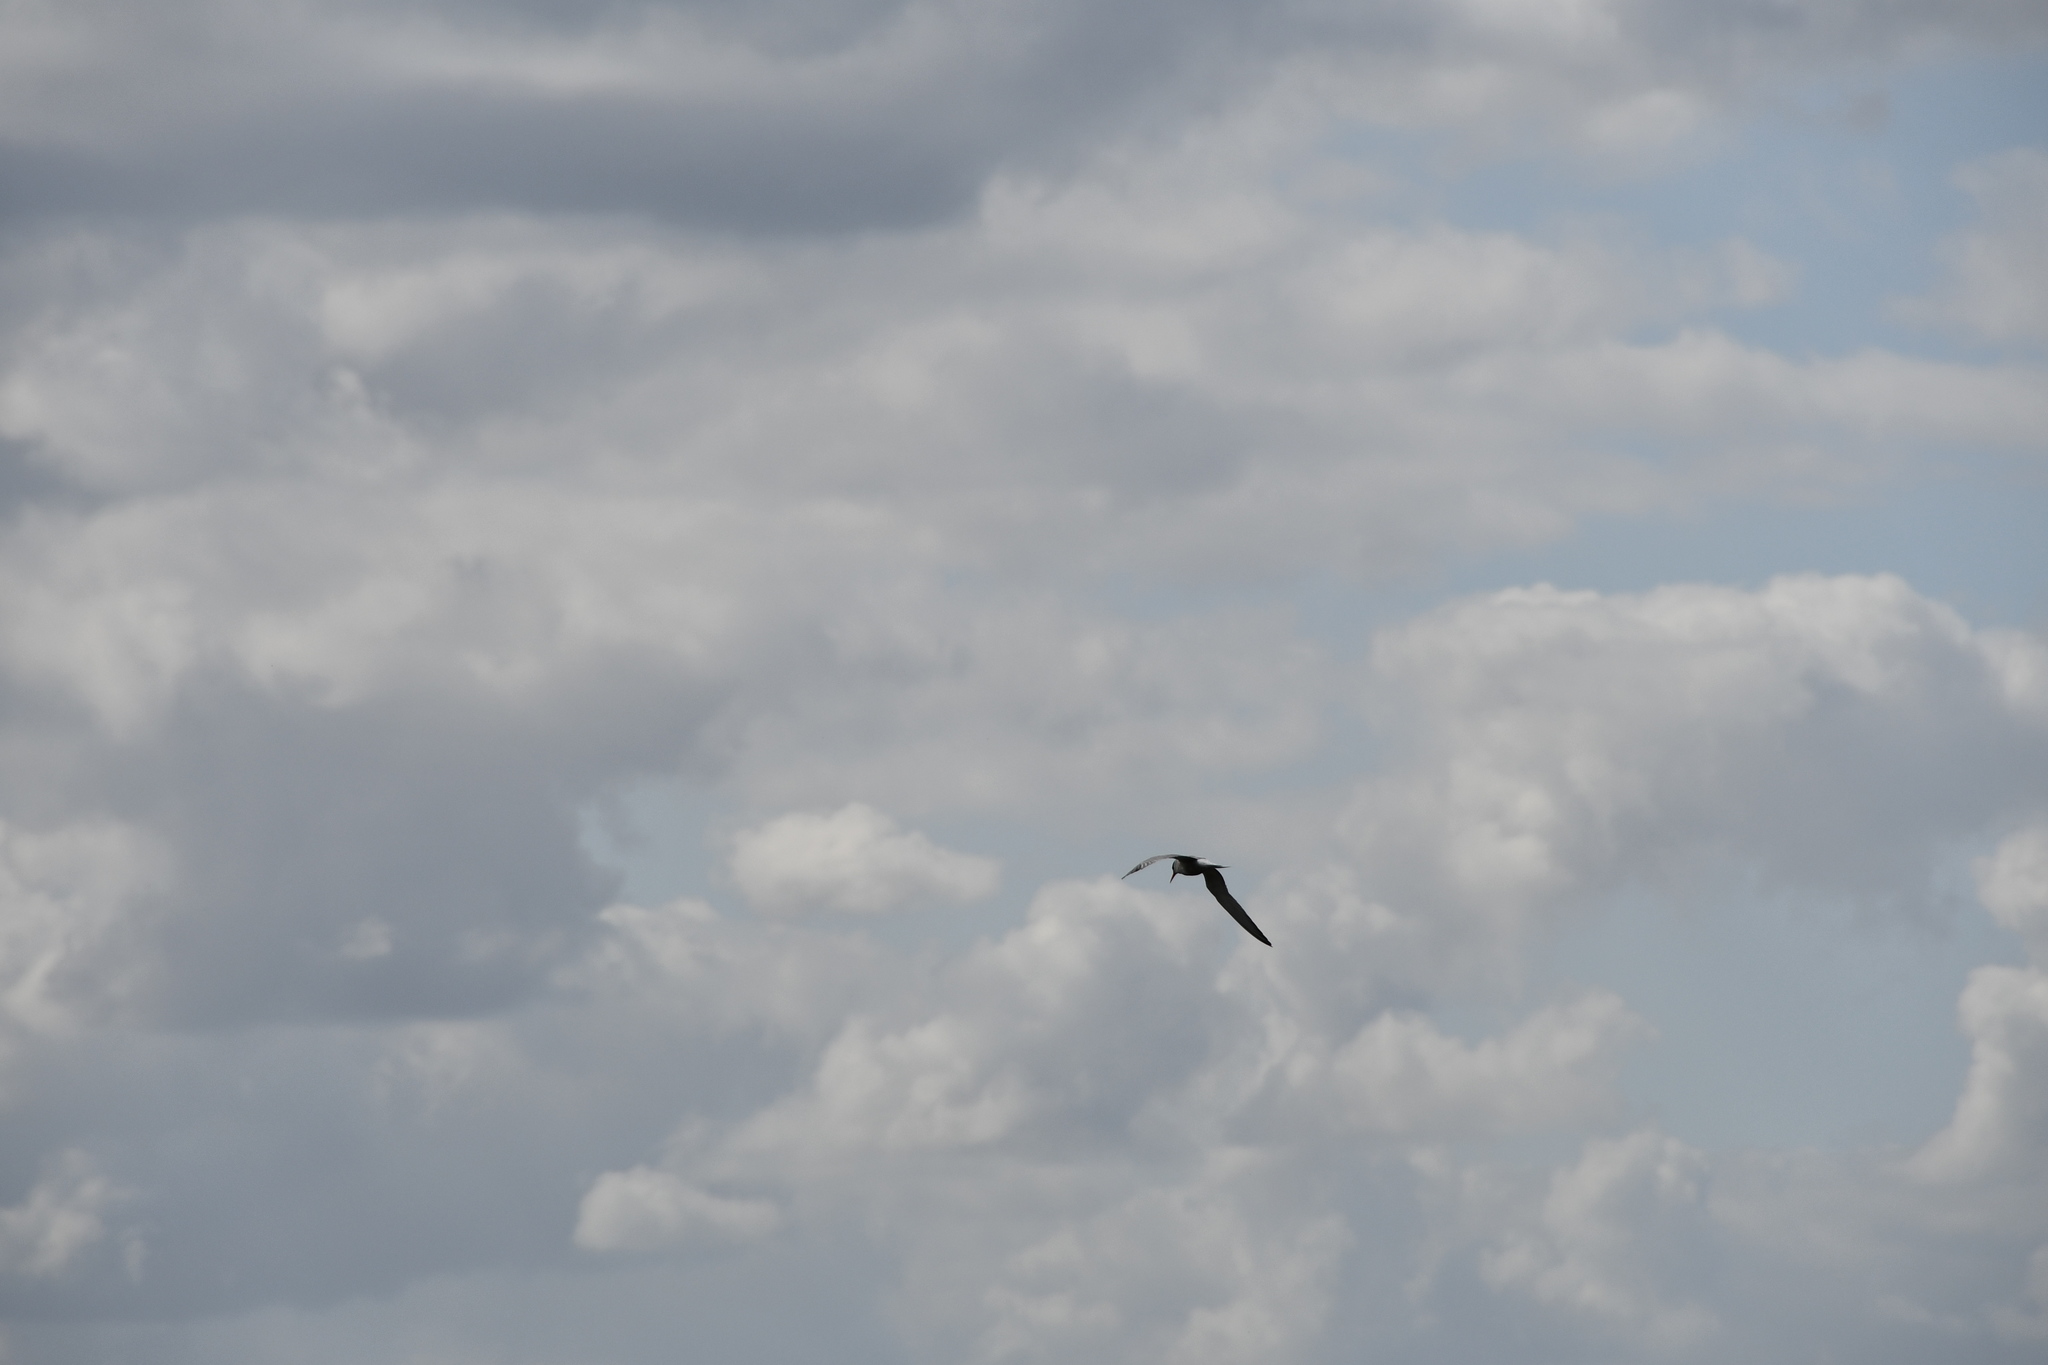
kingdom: Animalia
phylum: Chordata
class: Aves
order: Charadriiformes
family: Laridae
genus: Sterna
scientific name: Sterna hirundo
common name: Common tern
